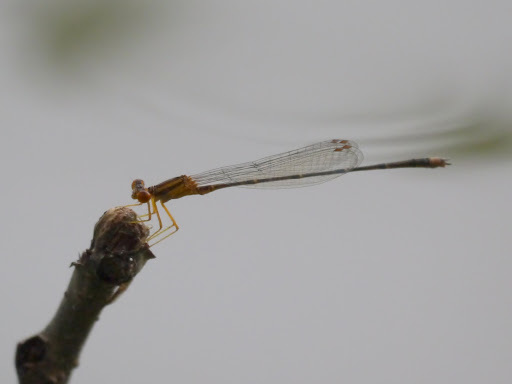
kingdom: Animalia
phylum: Arthropoda
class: Insecta
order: Odonata
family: Coenagrionidae
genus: Enallagma
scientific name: Enallagma signatum
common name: Orange bluet
